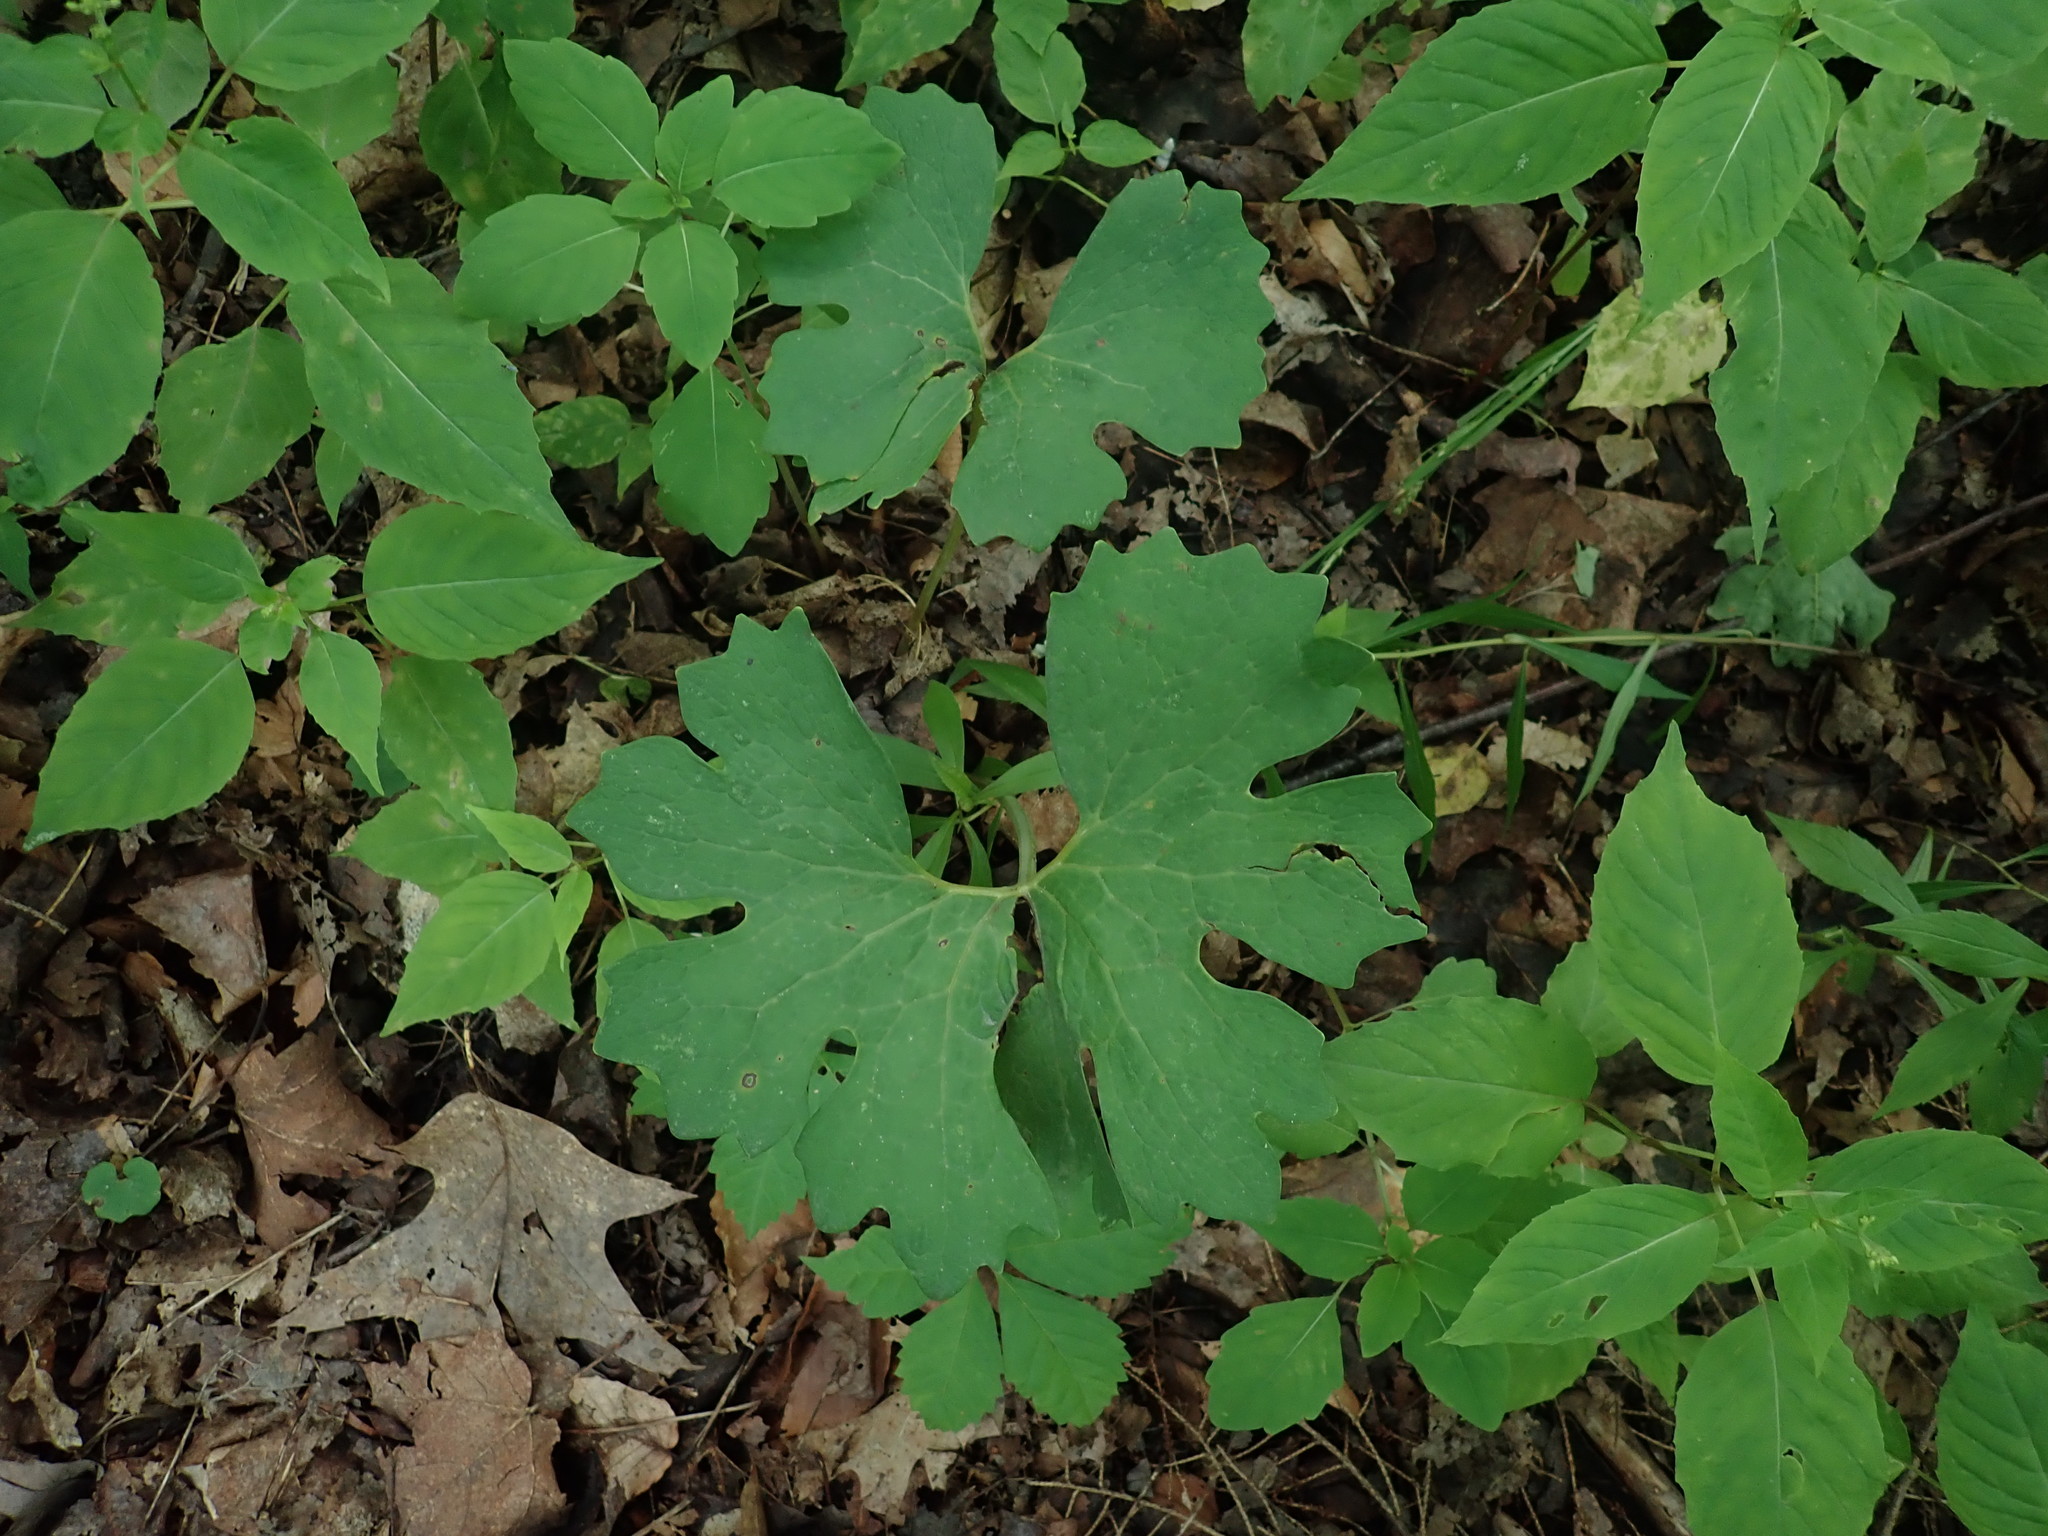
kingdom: Plantae
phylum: Tracheophyta
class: Magnoliopsida
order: Ranunculales
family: Papaveraceae
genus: Sanguinaria
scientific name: Sanguinaria canadensis
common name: Bloodroot
